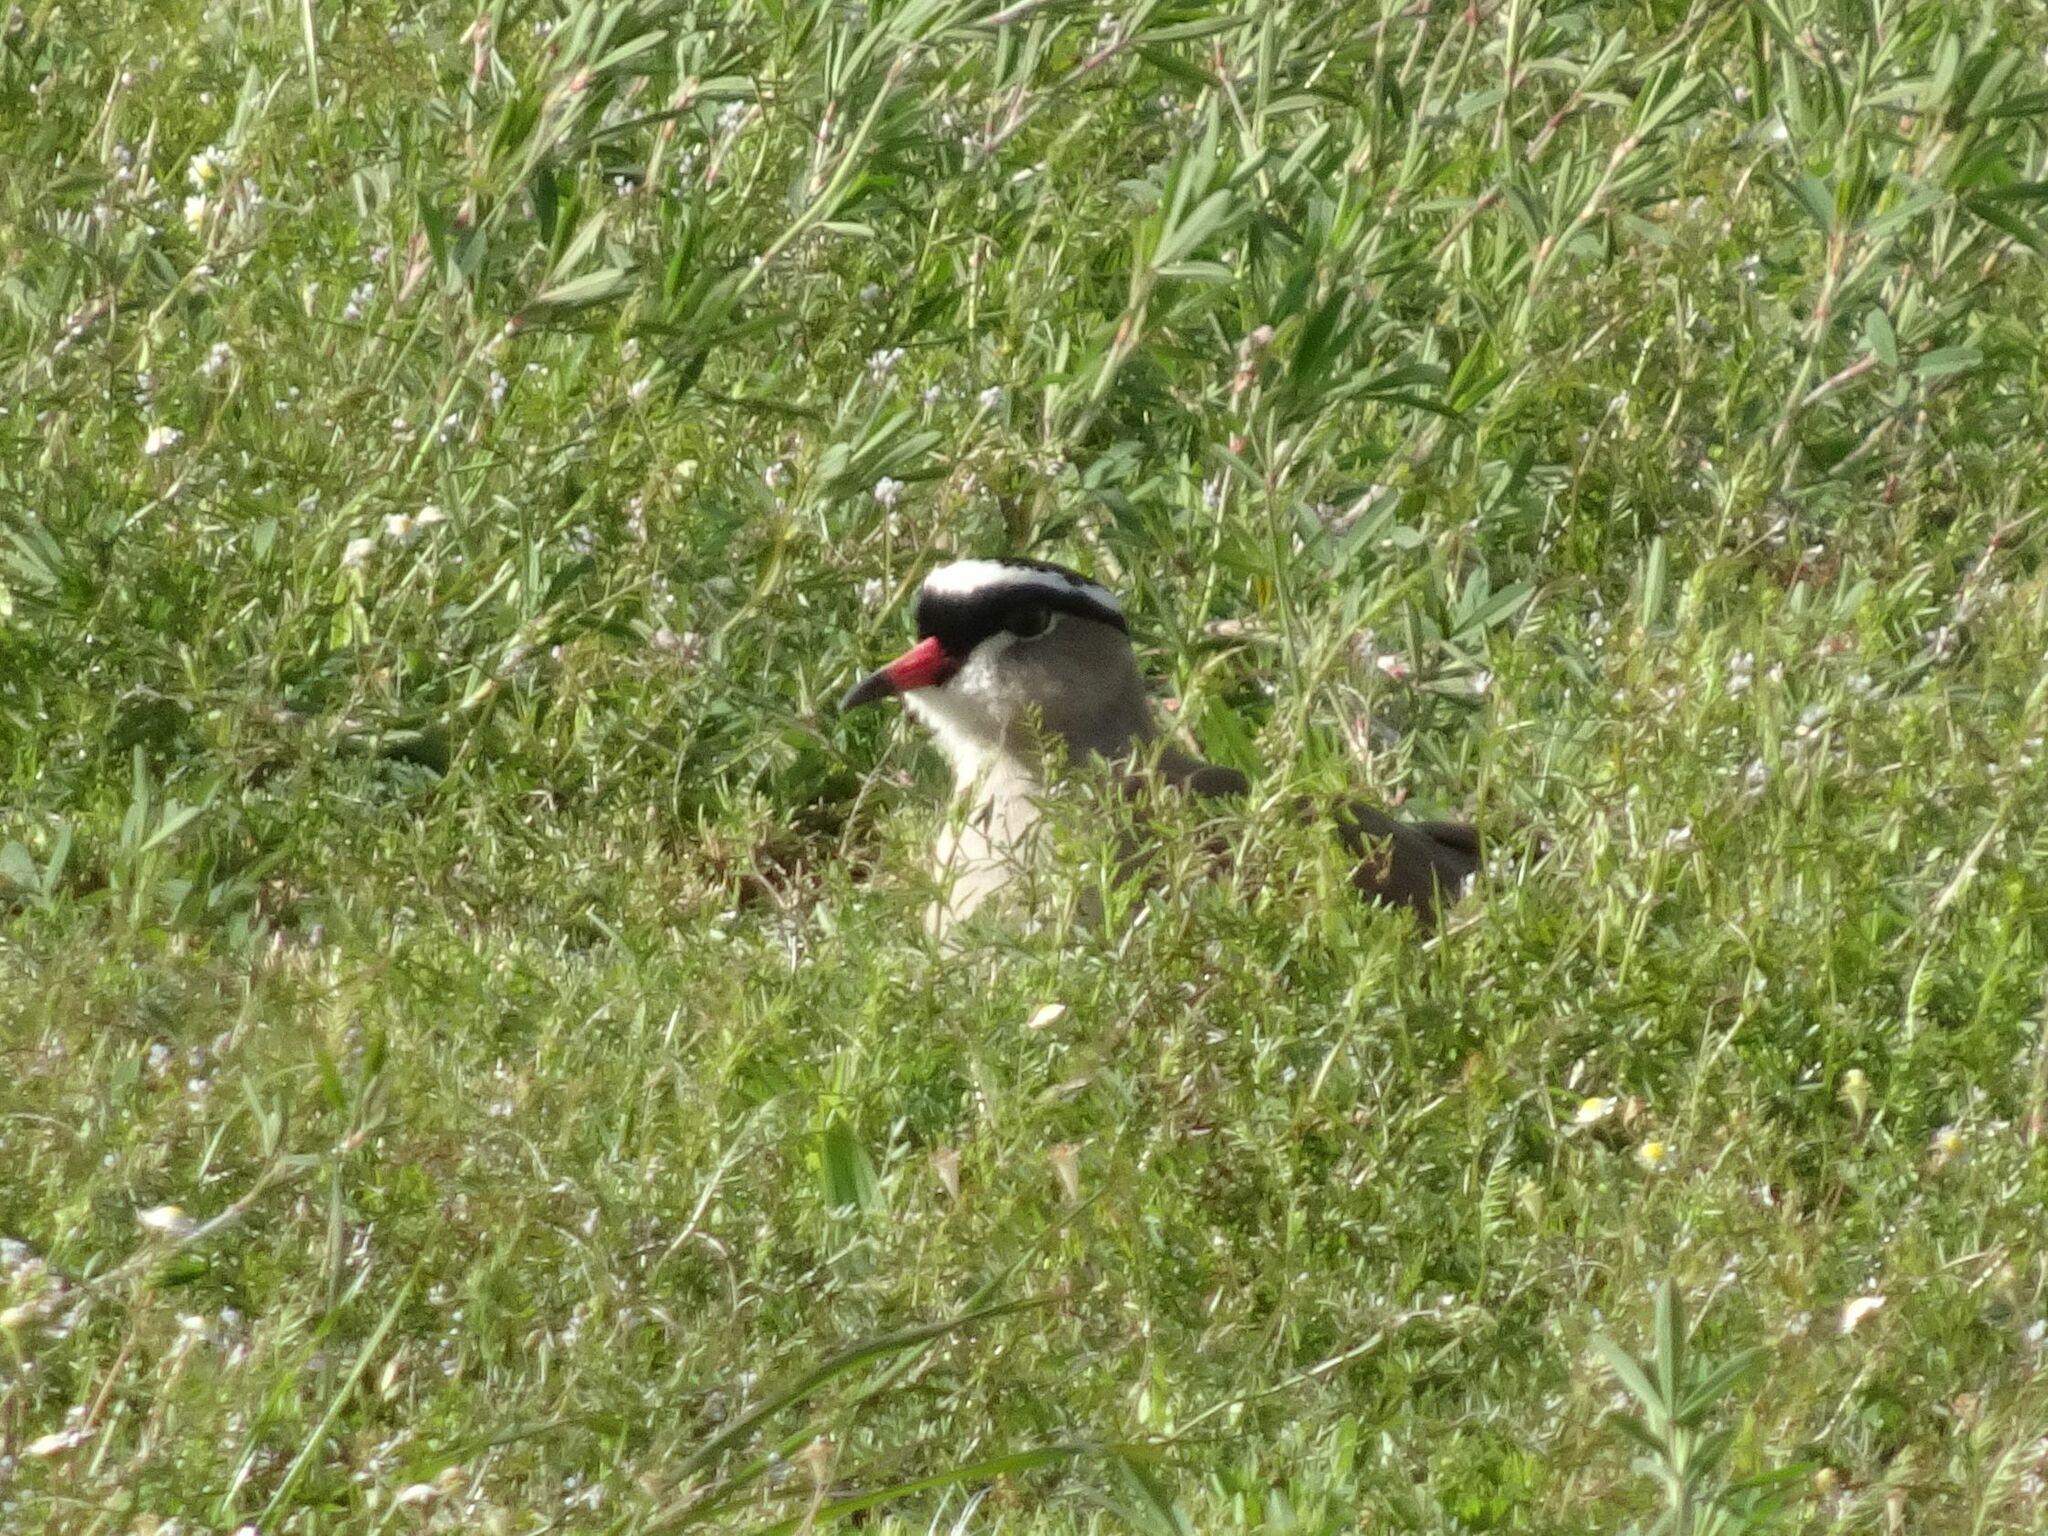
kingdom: Animalia
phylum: Chordata
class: Aves
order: Charadriiformes
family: Charadriidae
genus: Vanellus
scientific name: Vanellus coronatus
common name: Crowned lapwing
